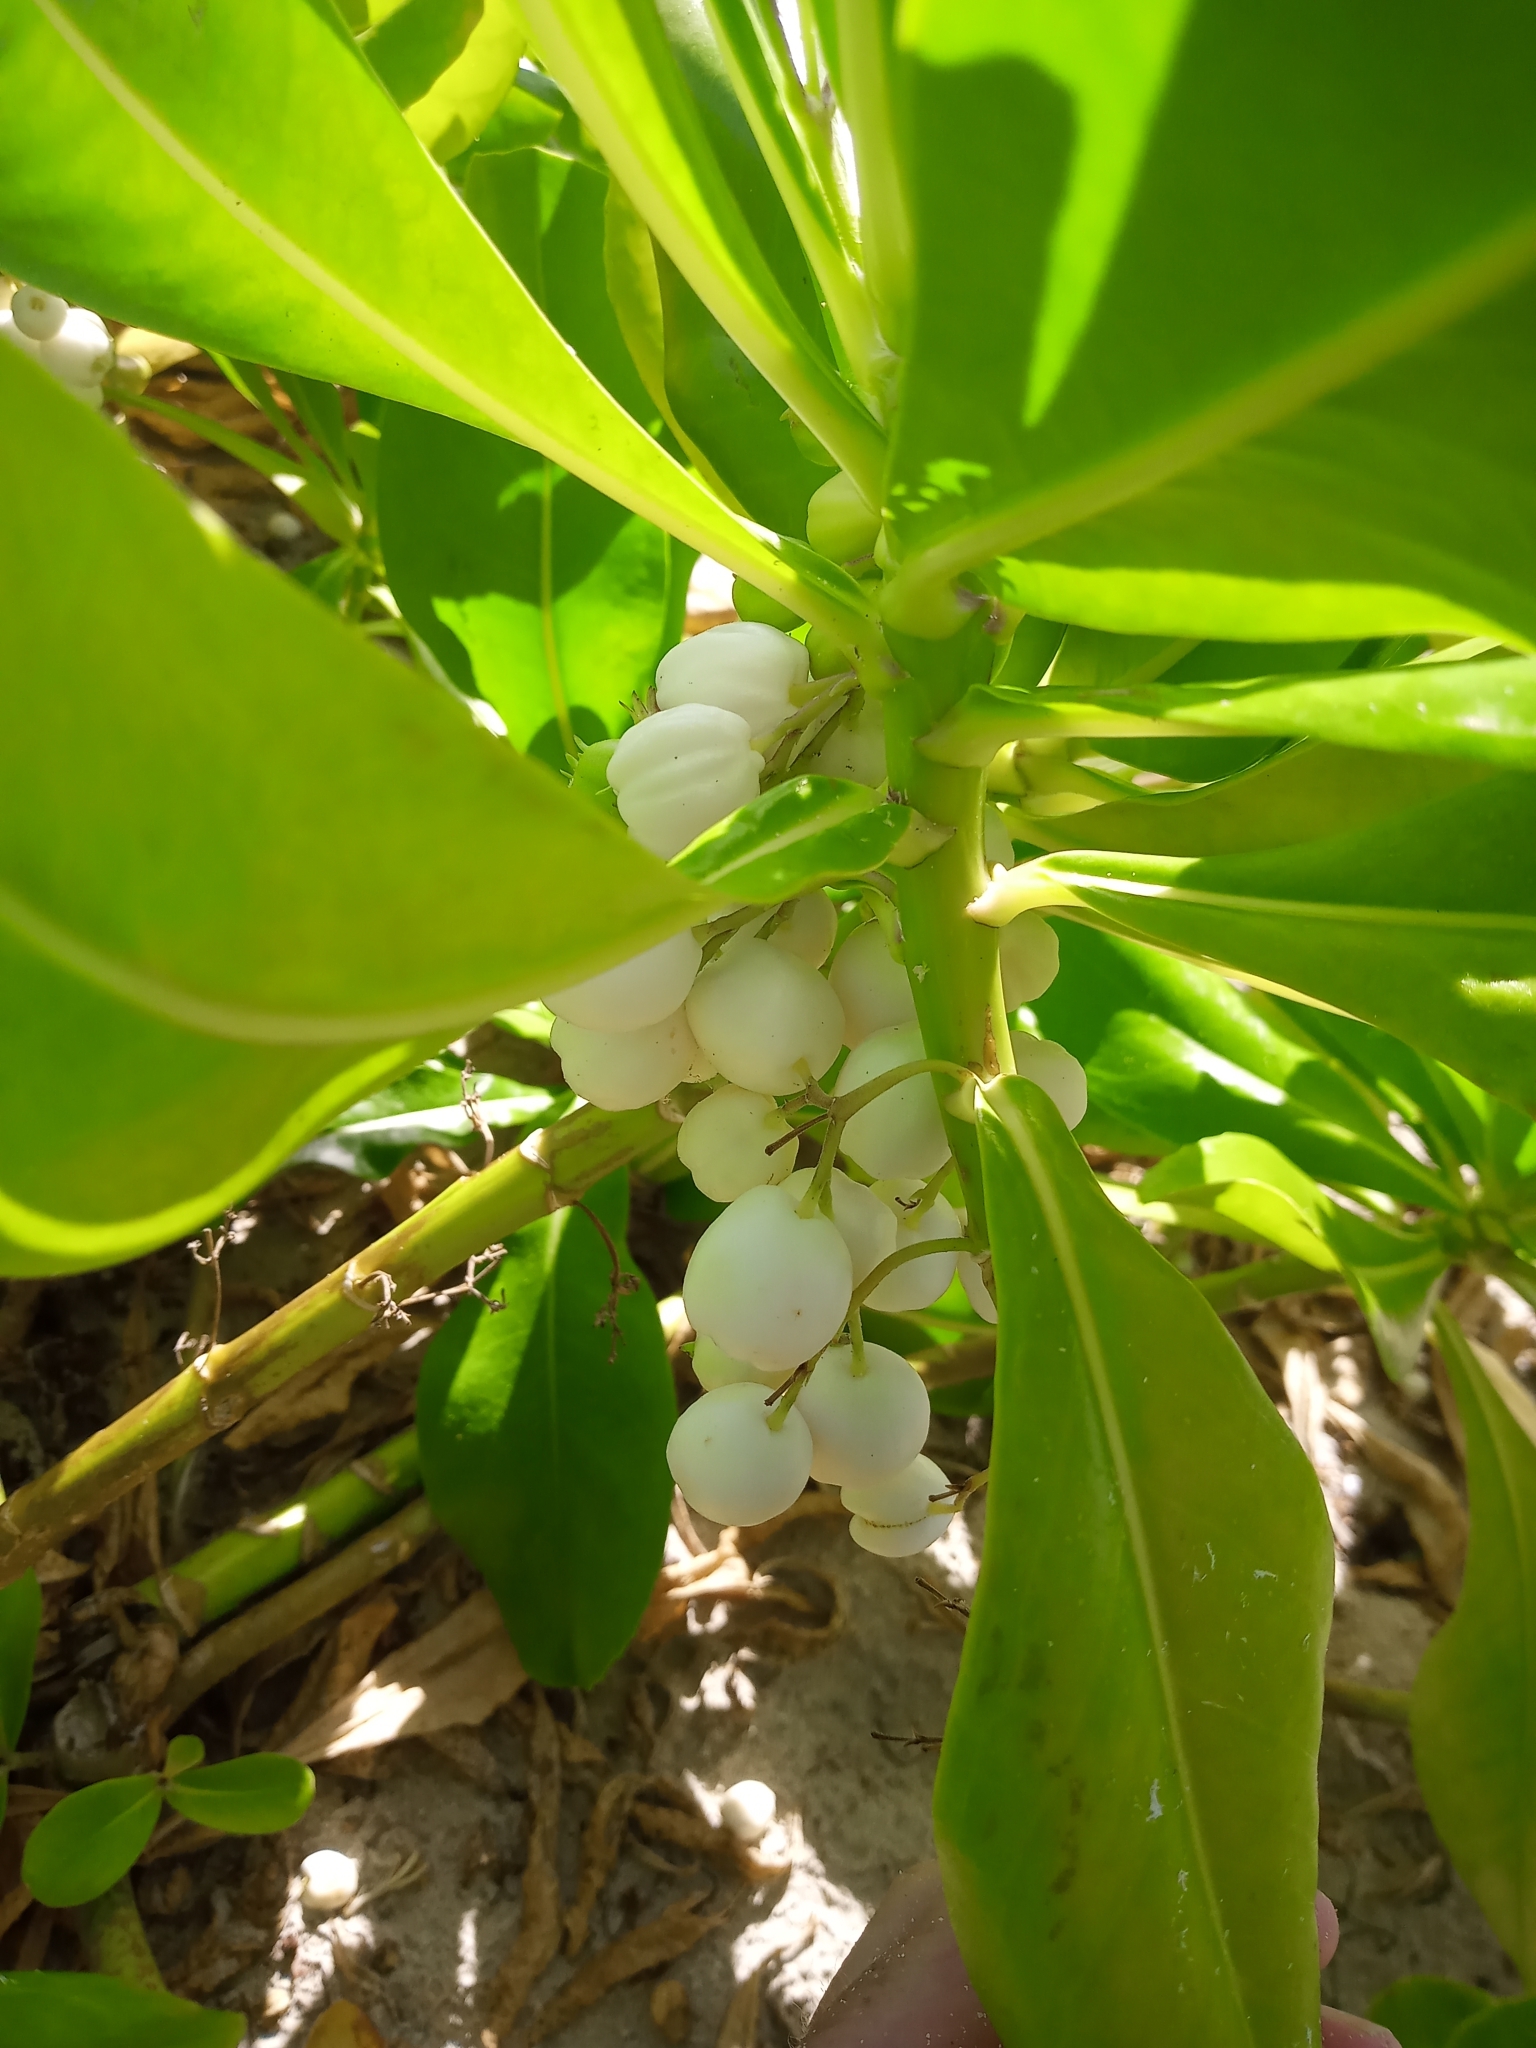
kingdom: Plantae
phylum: Tracheophyta
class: Magnoliopsida
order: Asterales
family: Goodeniaceae
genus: Scaevola
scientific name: Scaevola taccada
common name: Sea lettucetree
